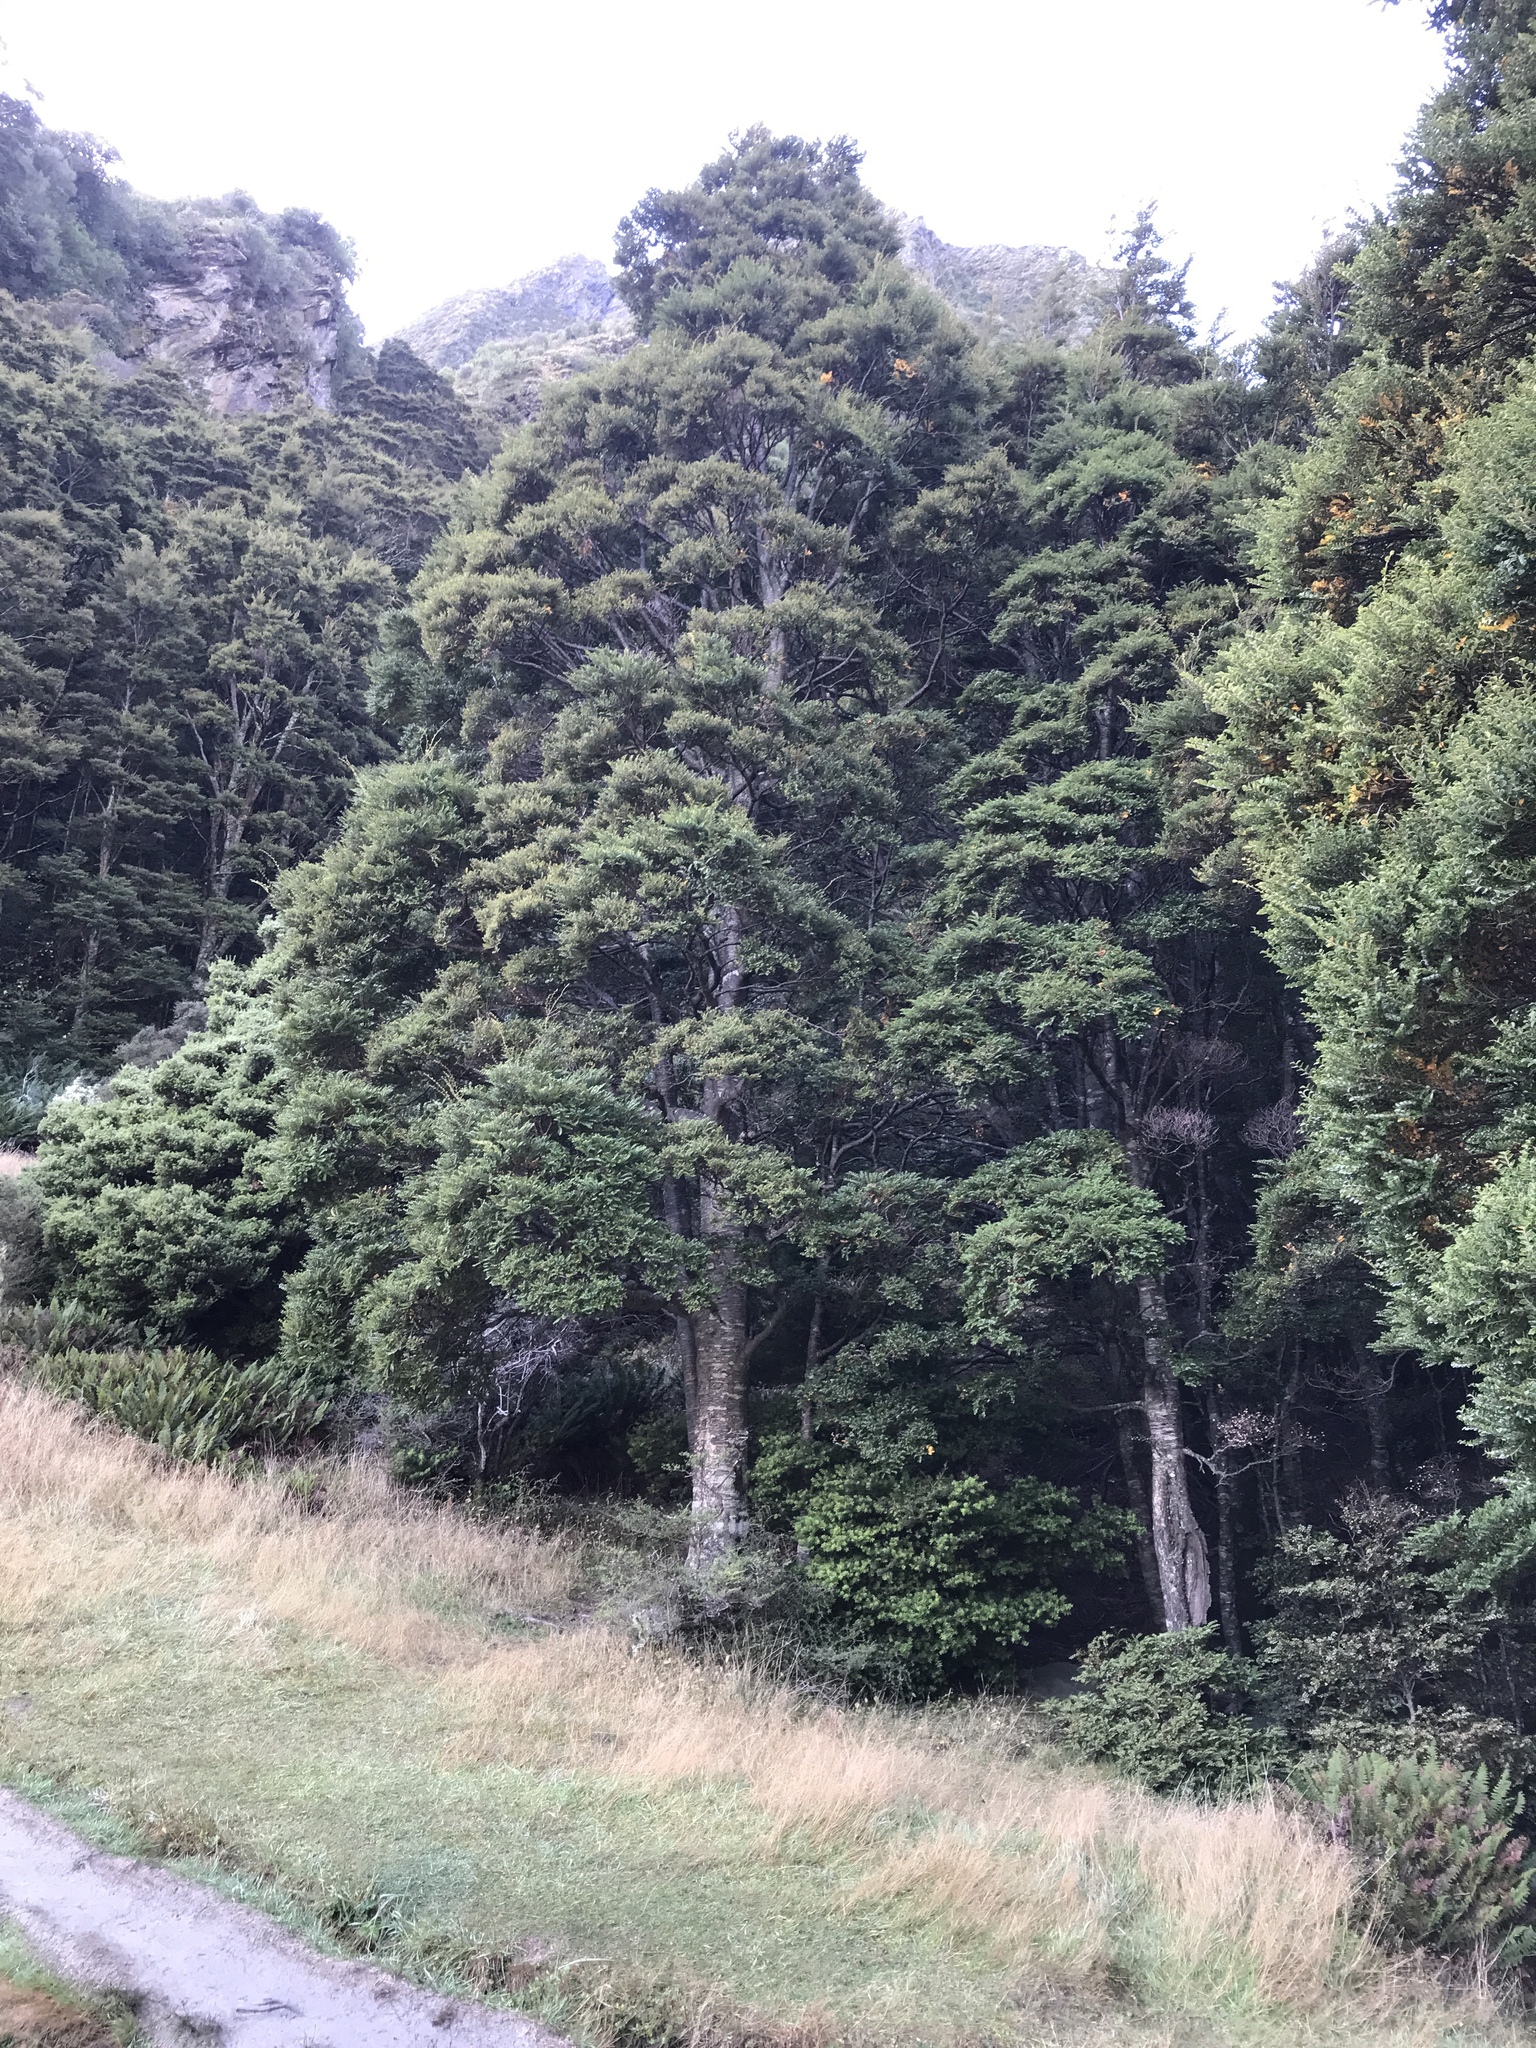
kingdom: Plantae
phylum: Tracheophyta
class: Magnoliopsida
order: Fagales
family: Nothofagaceae
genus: Nothofagus
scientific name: Nothofagus menziesii
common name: Silver beech
